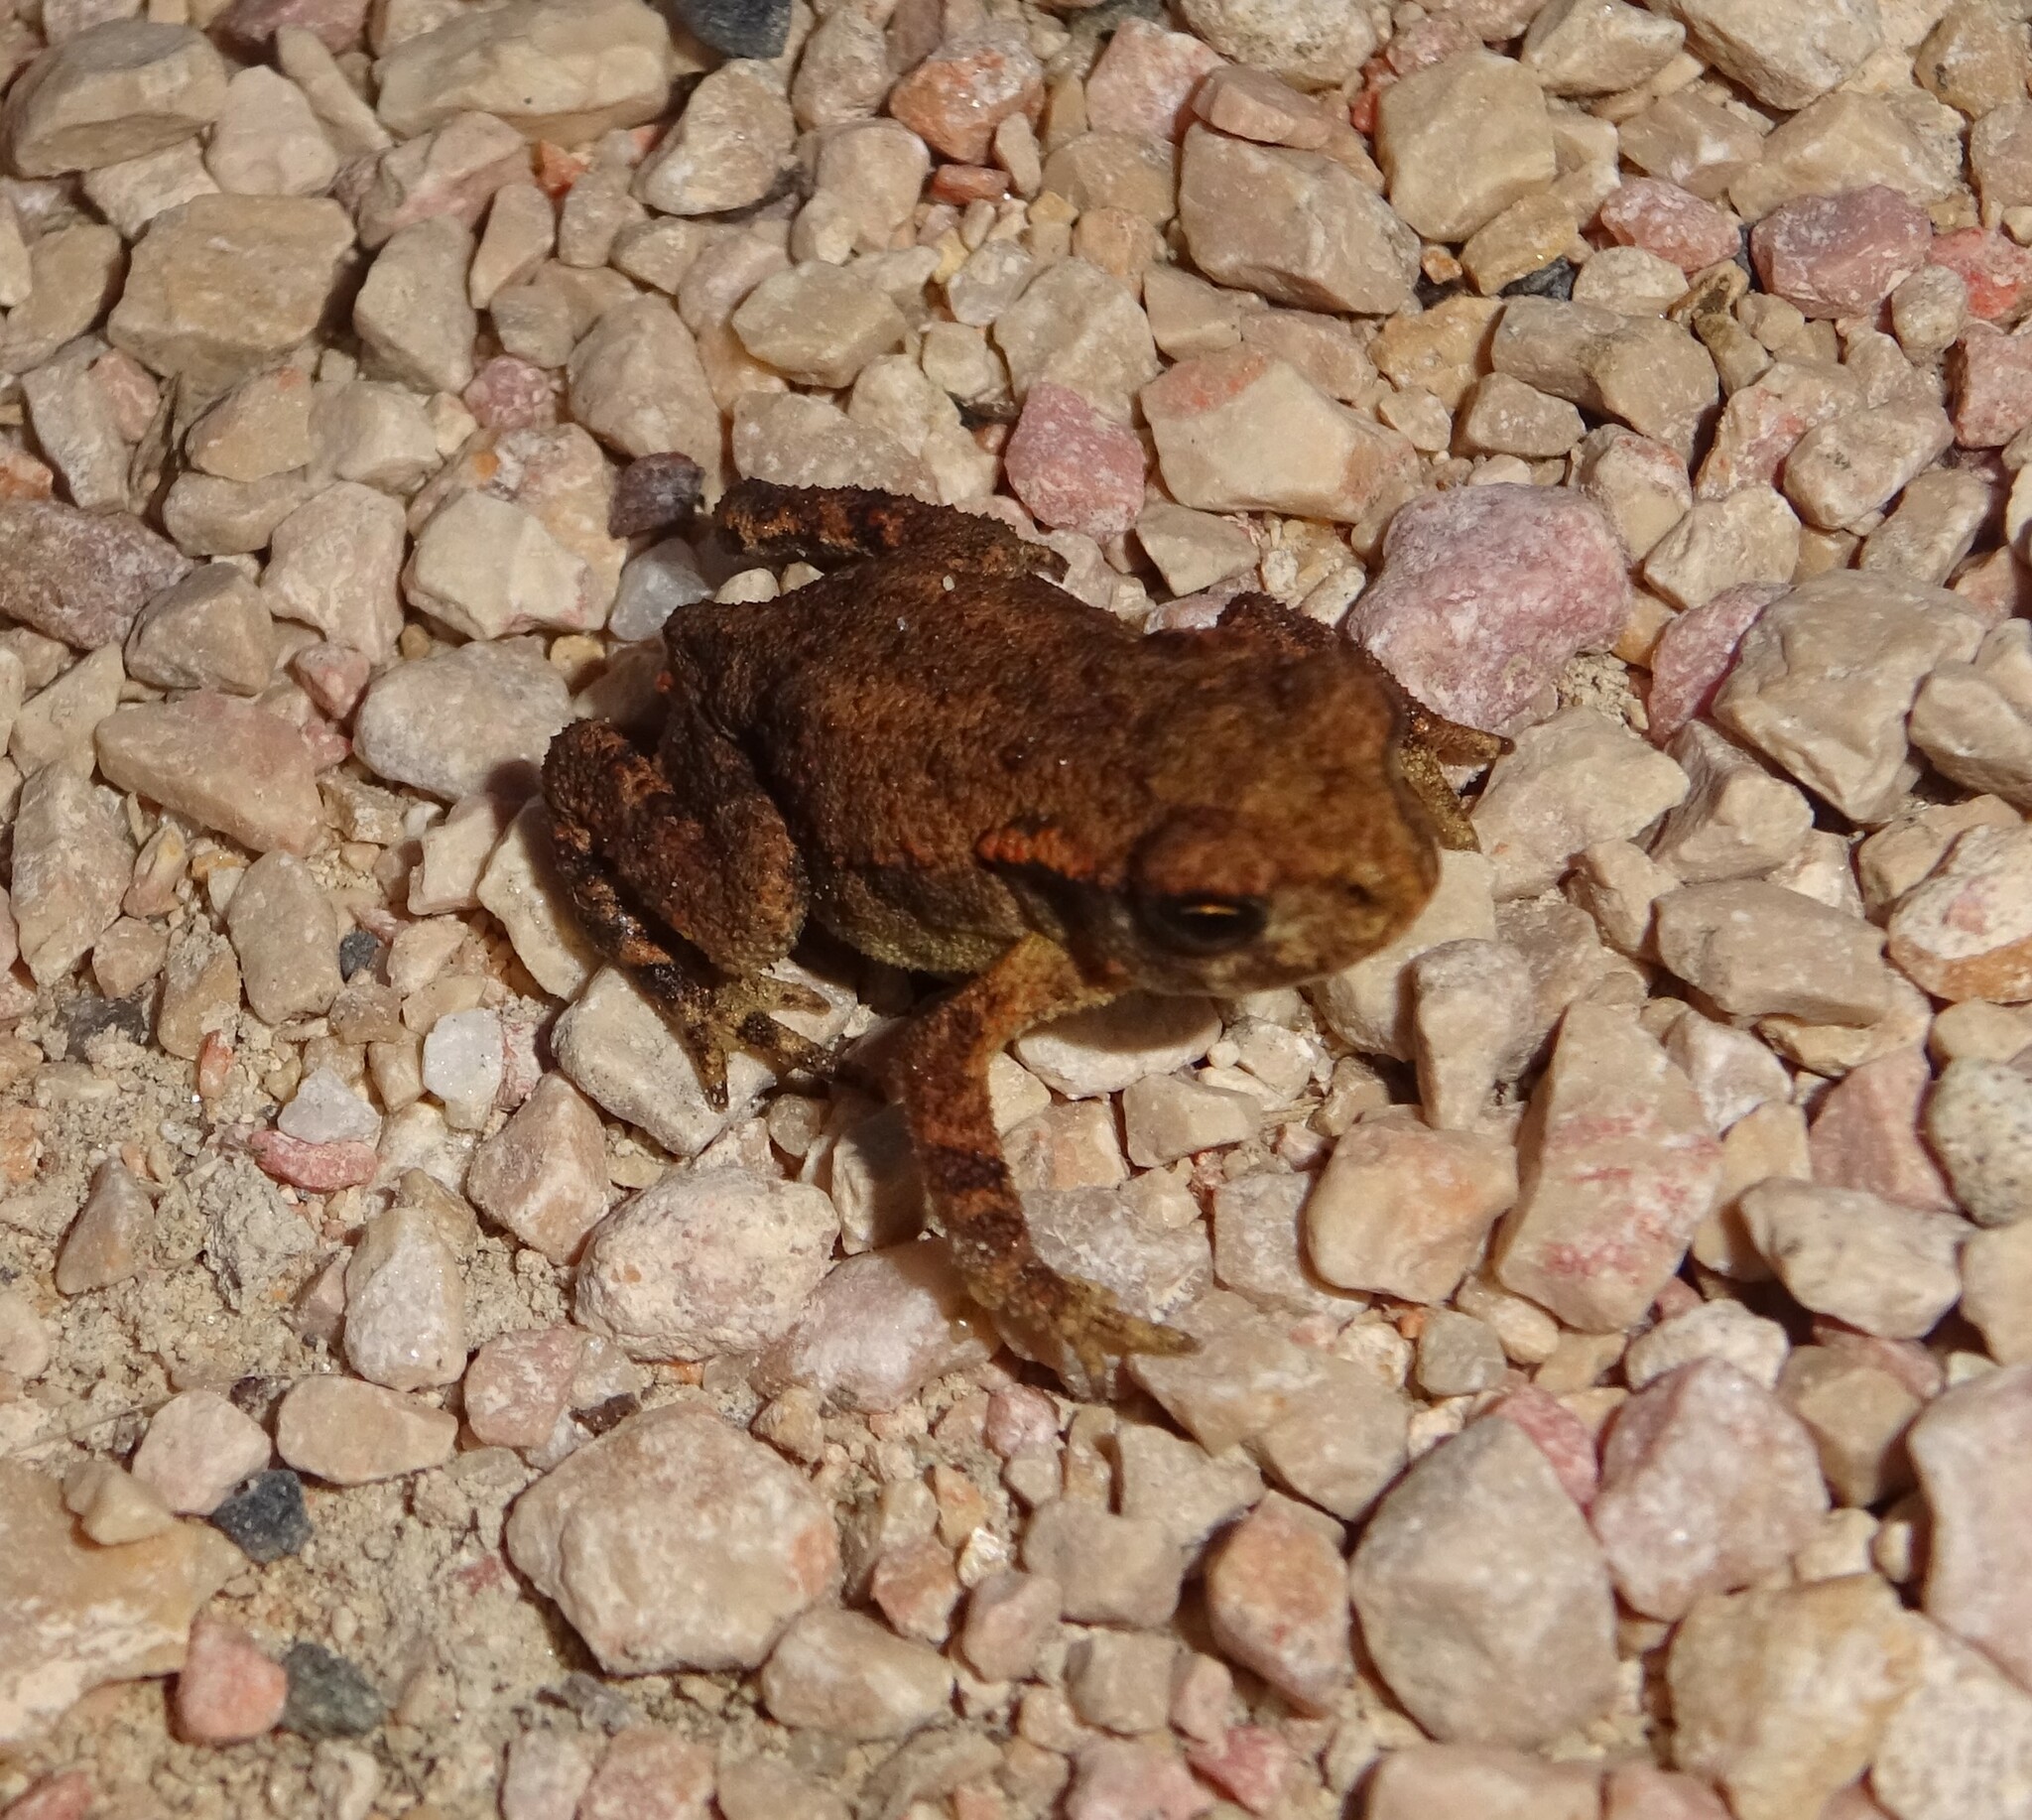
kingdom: Animalia
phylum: Chordata
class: Amphibia
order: Anura
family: Bufonidae
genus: Bufo
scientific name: Bufo spinosus
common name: Western common toad
